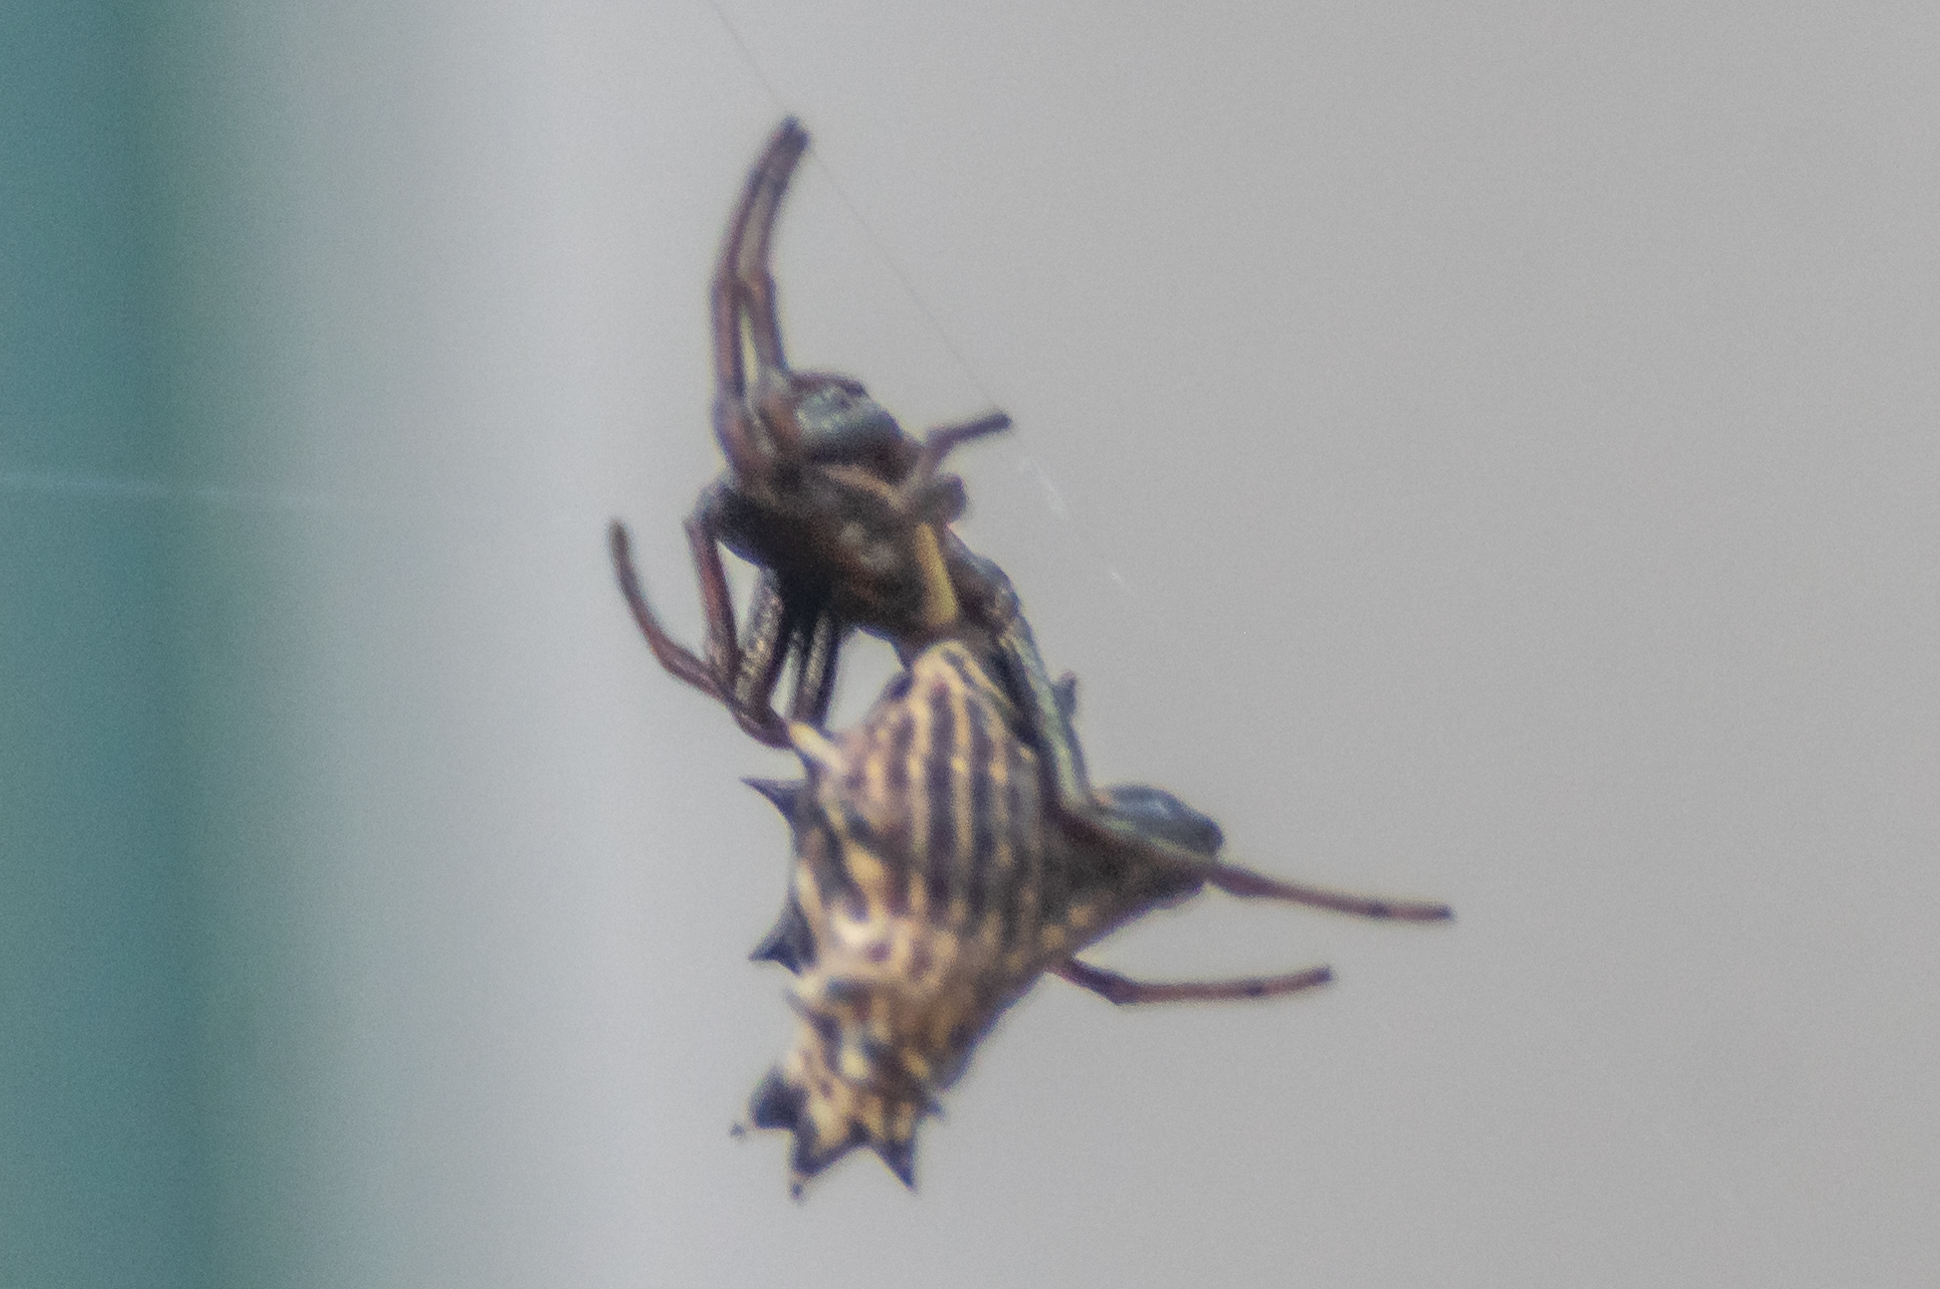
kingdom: Animalia
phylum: Arthropoda
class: Arachnida
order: Araneae
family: Araneidae
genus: Micrathena
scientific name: Micrathena gracilis
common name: Orb weavers
